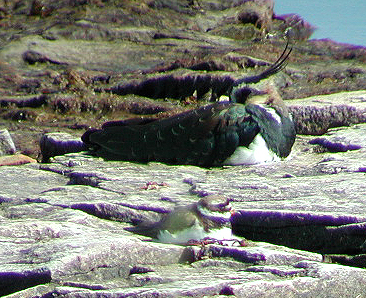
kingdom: Animalia
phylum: Chordata
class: Aves
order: Charadriiformes
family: Charadriidae
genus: Vanellus
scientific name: Vanellus vanellus
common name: Northern lapwing
